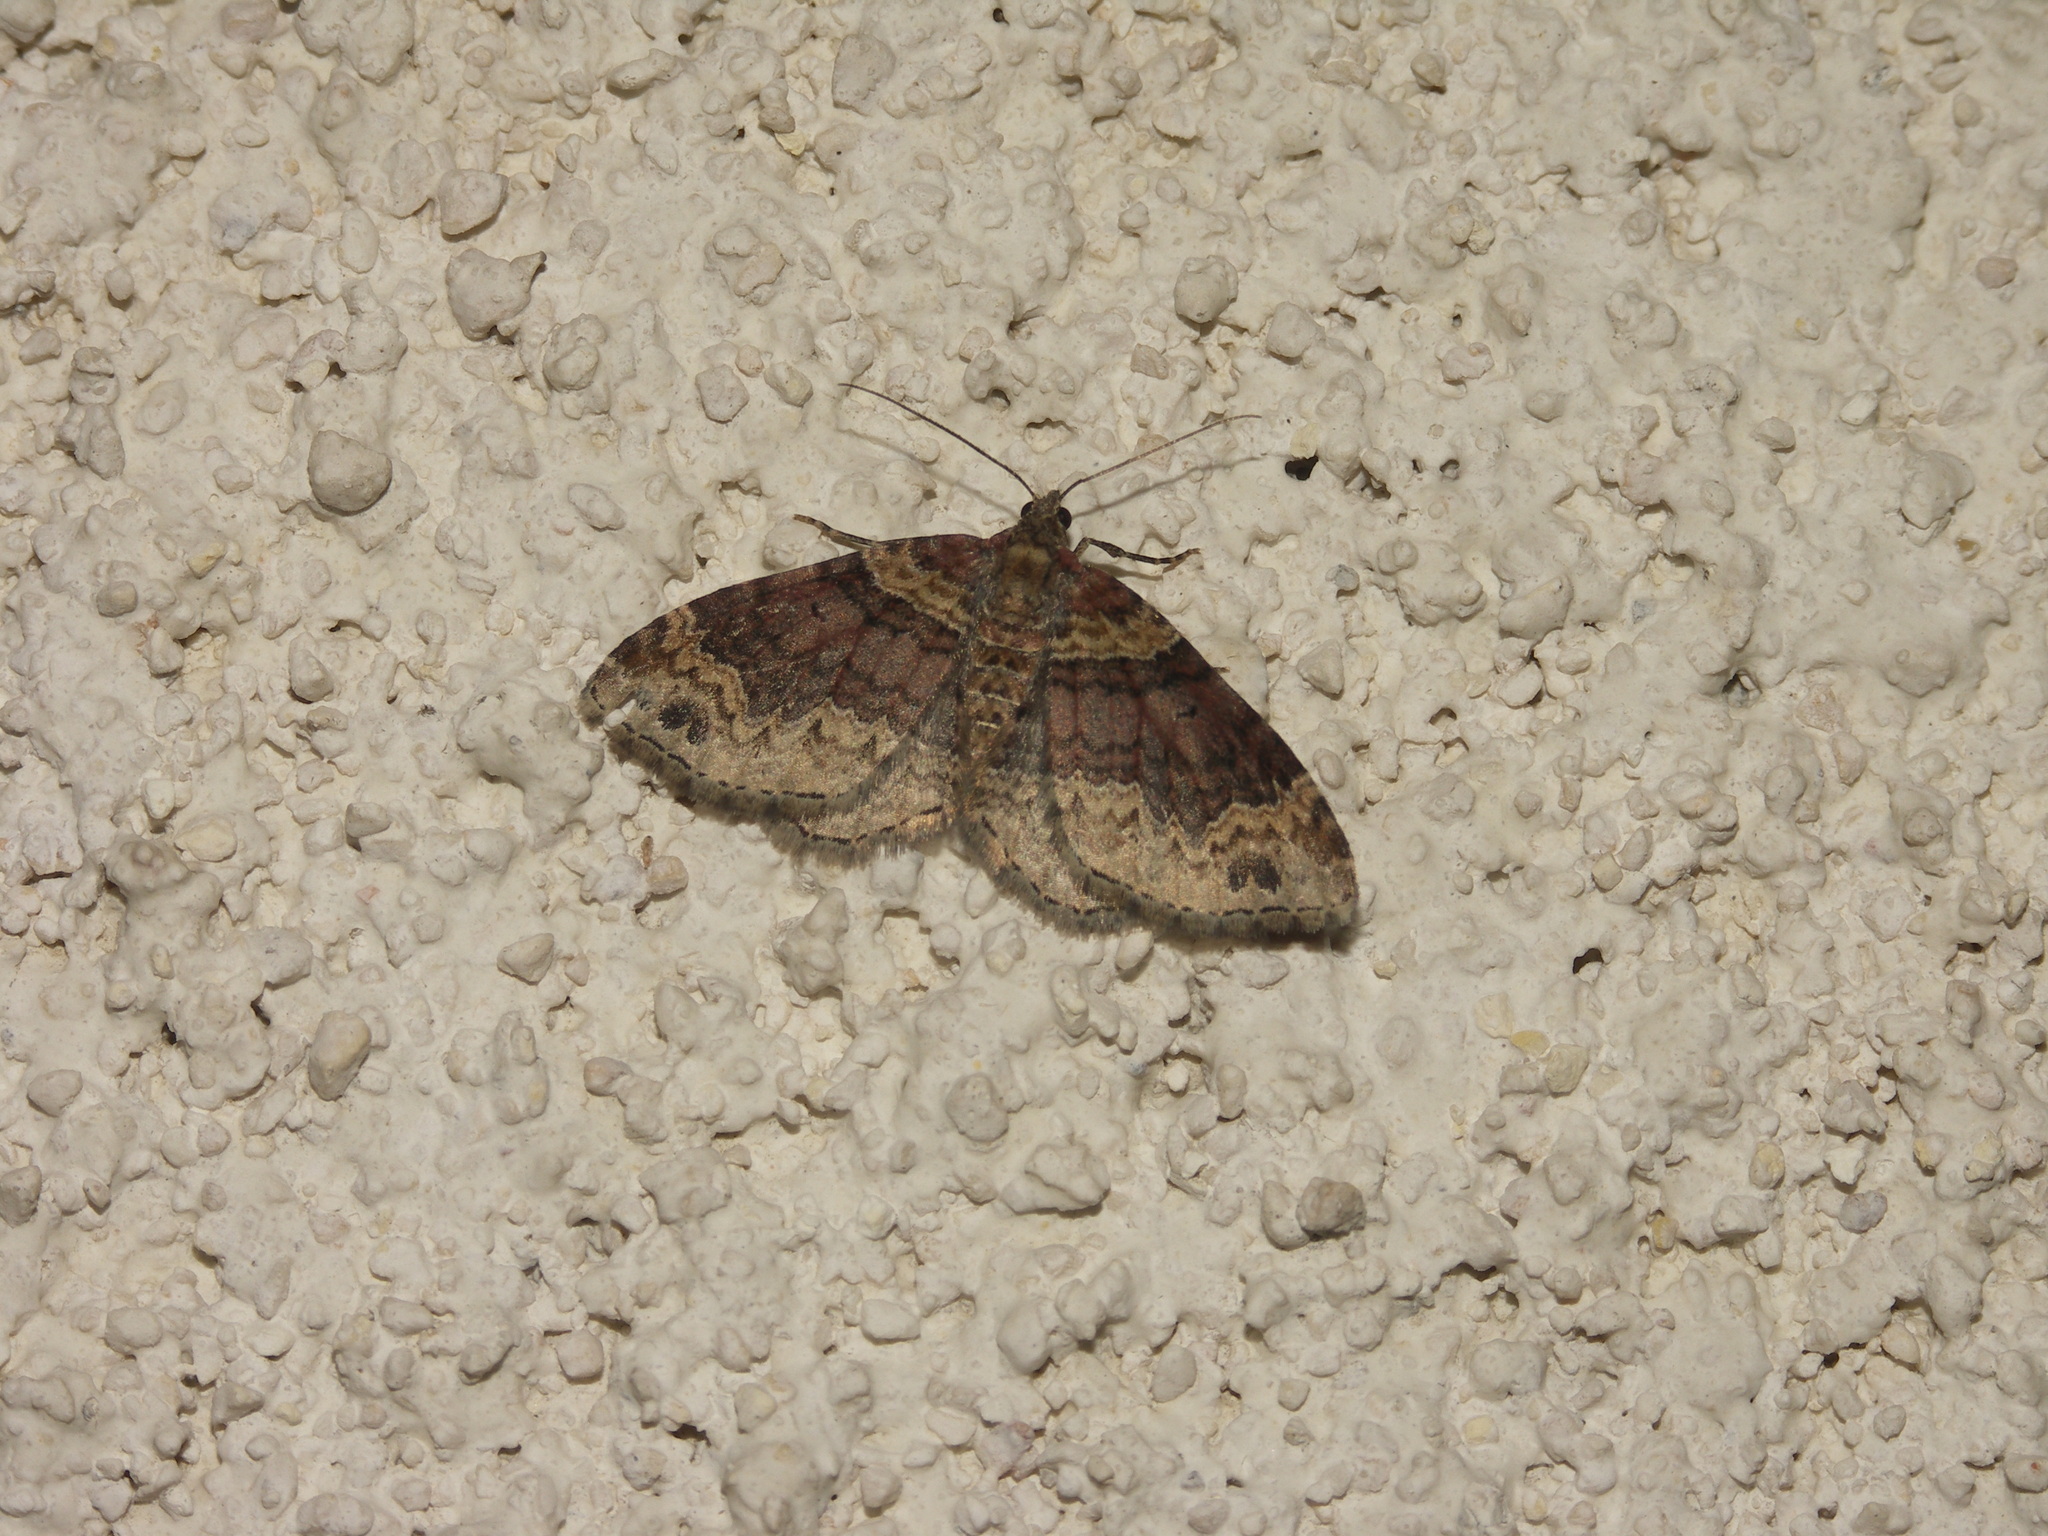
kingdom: Animalia
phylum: Arthropoda
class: Insecta
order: Lepidoptera
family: Geometridae
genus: Xanthorhoe
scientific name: Xanthorhoe ferrugata
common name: Dark-barred twin-spot carpet
